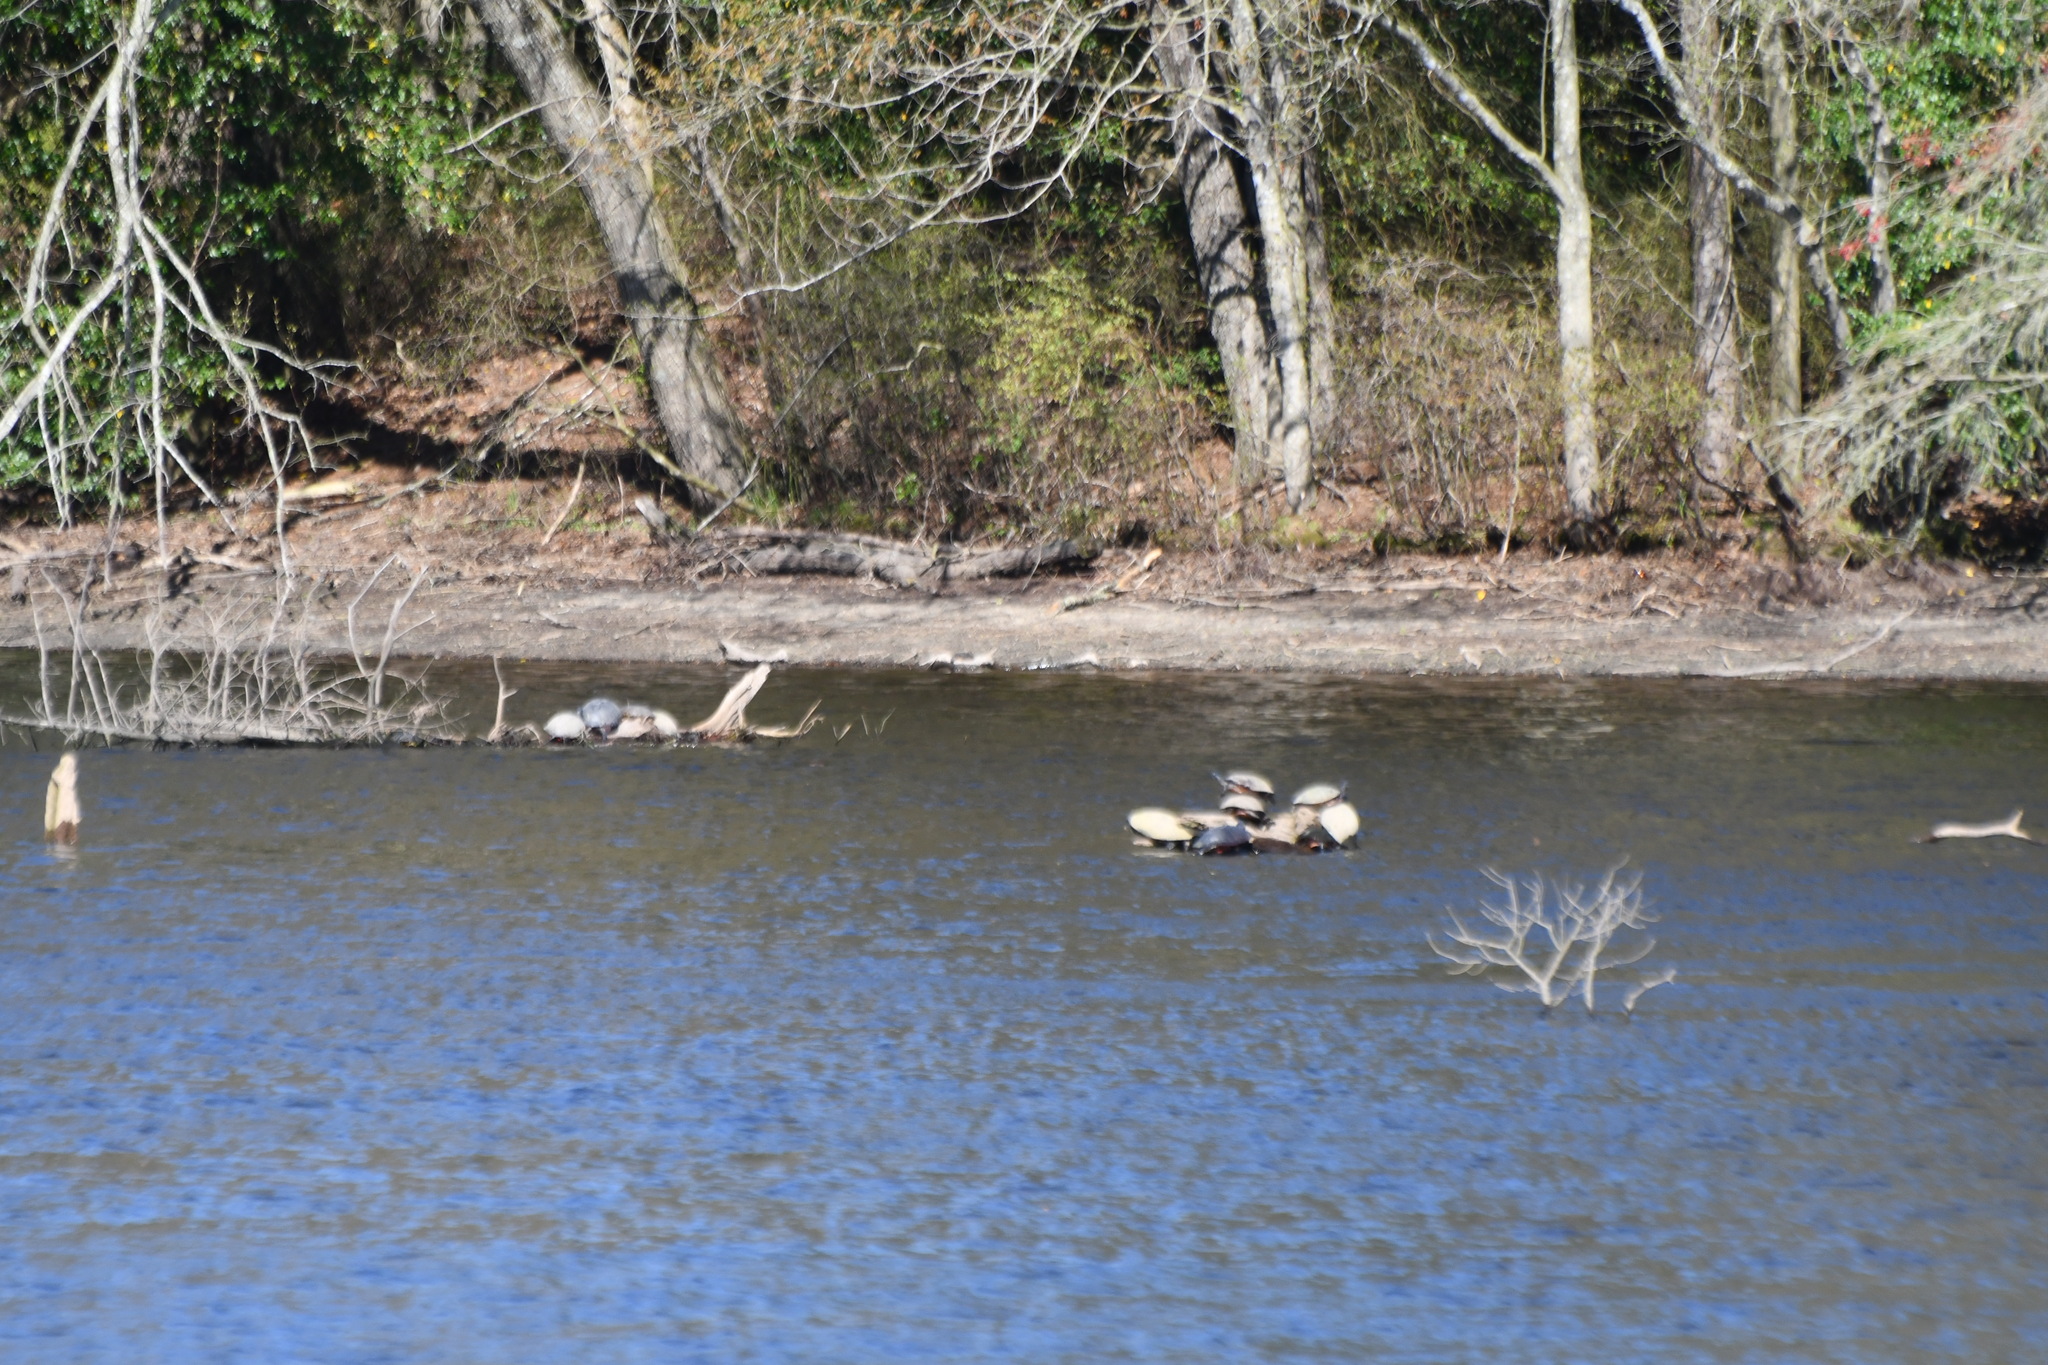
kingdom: Animalia
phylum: Chordata
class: Testudines
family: Emydidae
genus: Pseudemys
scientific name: Pseudemys rubriventris
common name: American red-bellied turtle
